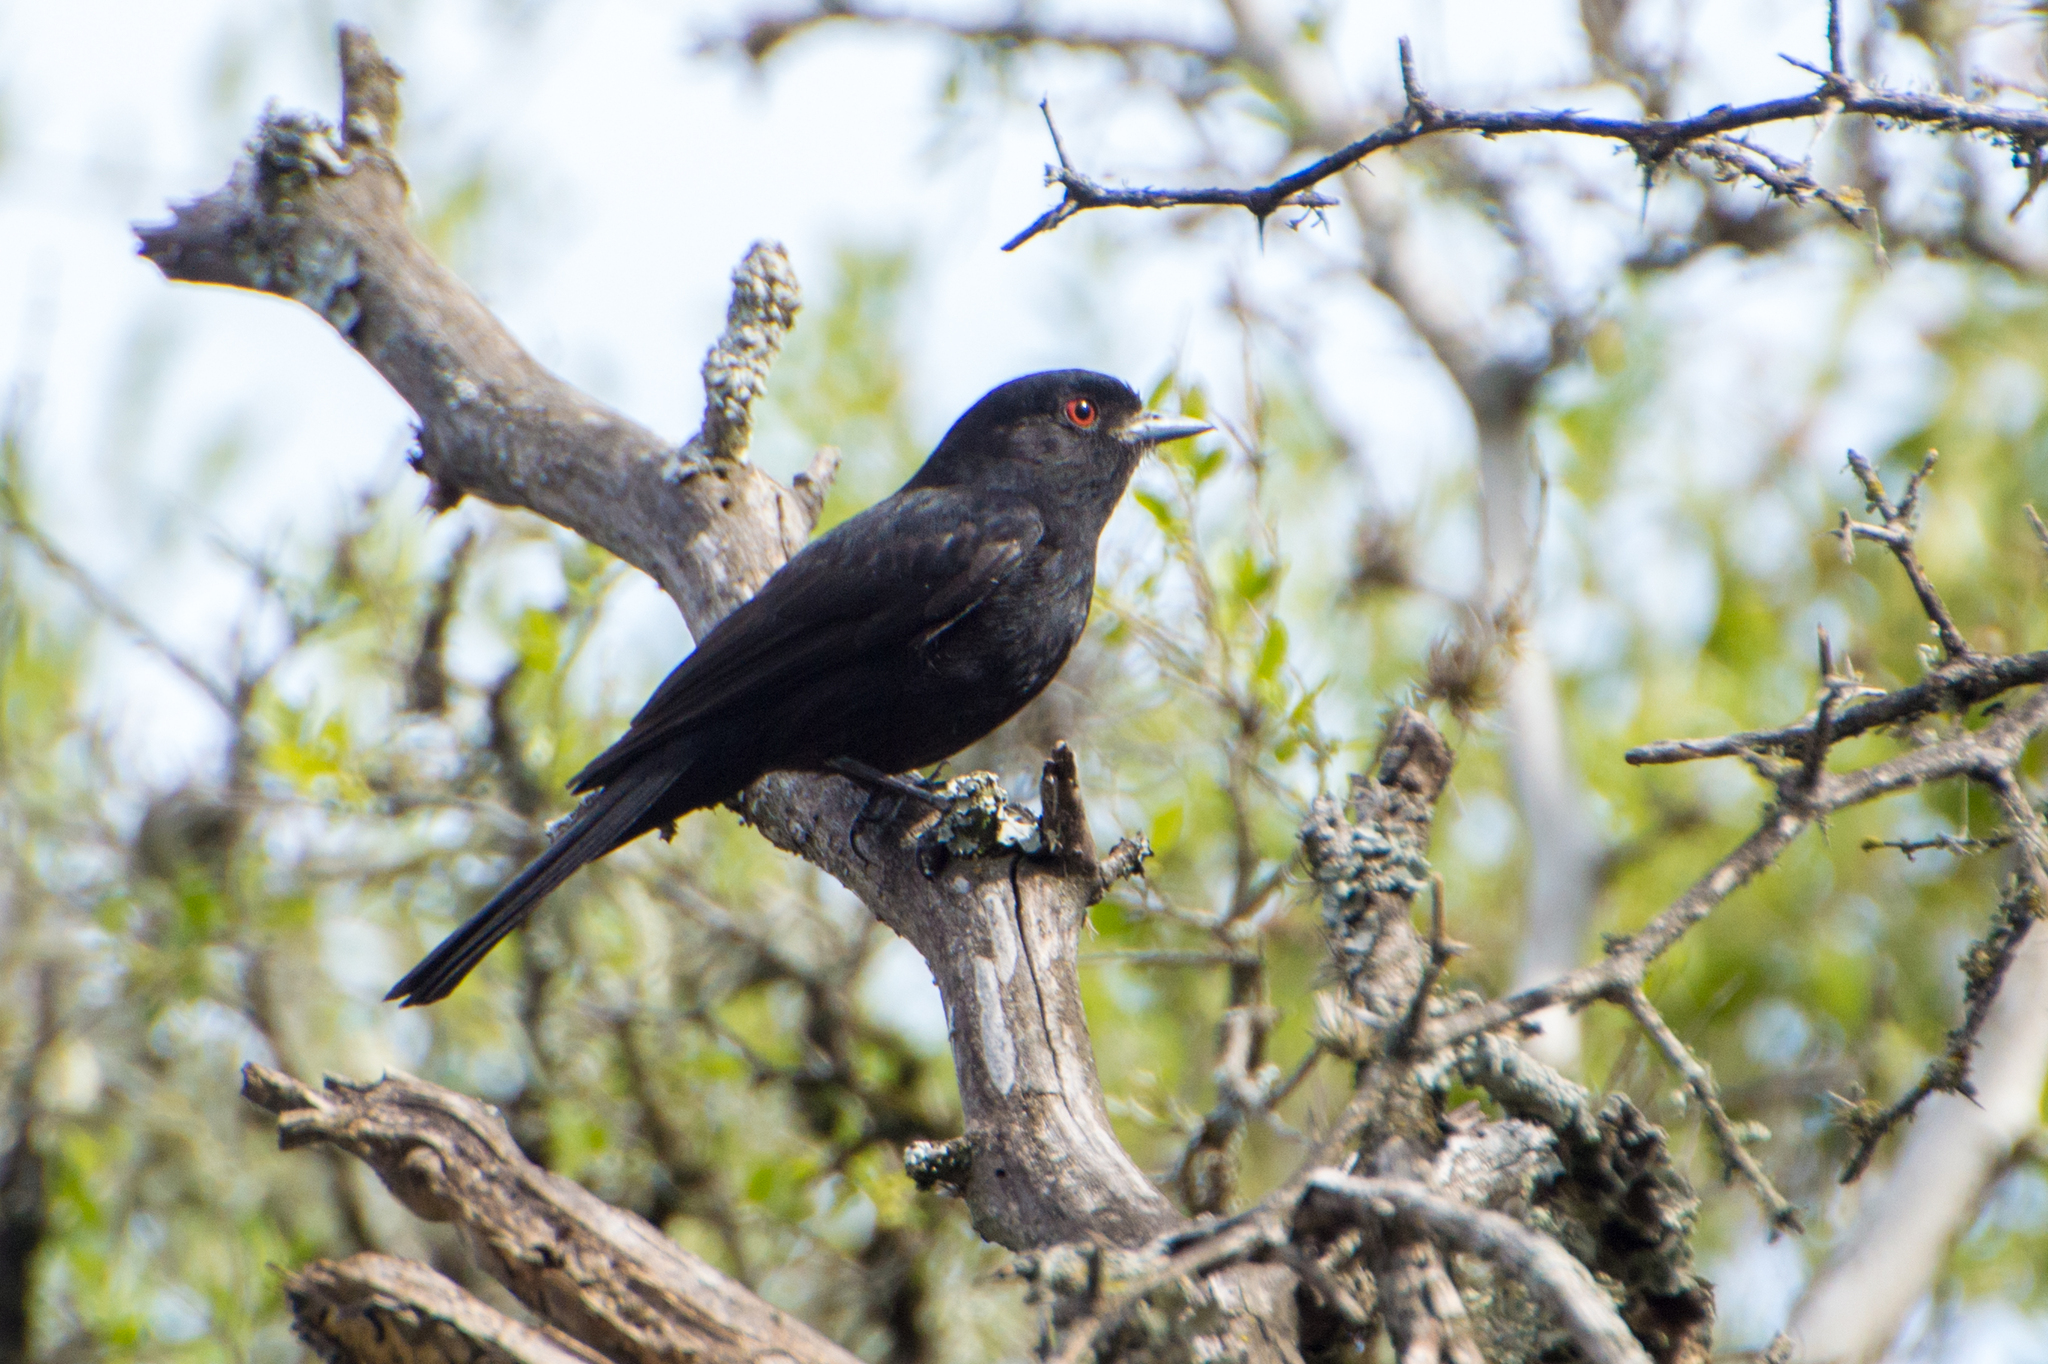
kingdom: Animalia
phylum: Chordata
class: Aves
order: Passeriformes
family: Tyrannidae
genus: Knipolegus
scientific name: Knipolegus cyanirostris
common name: Blue-billed black tyrant
